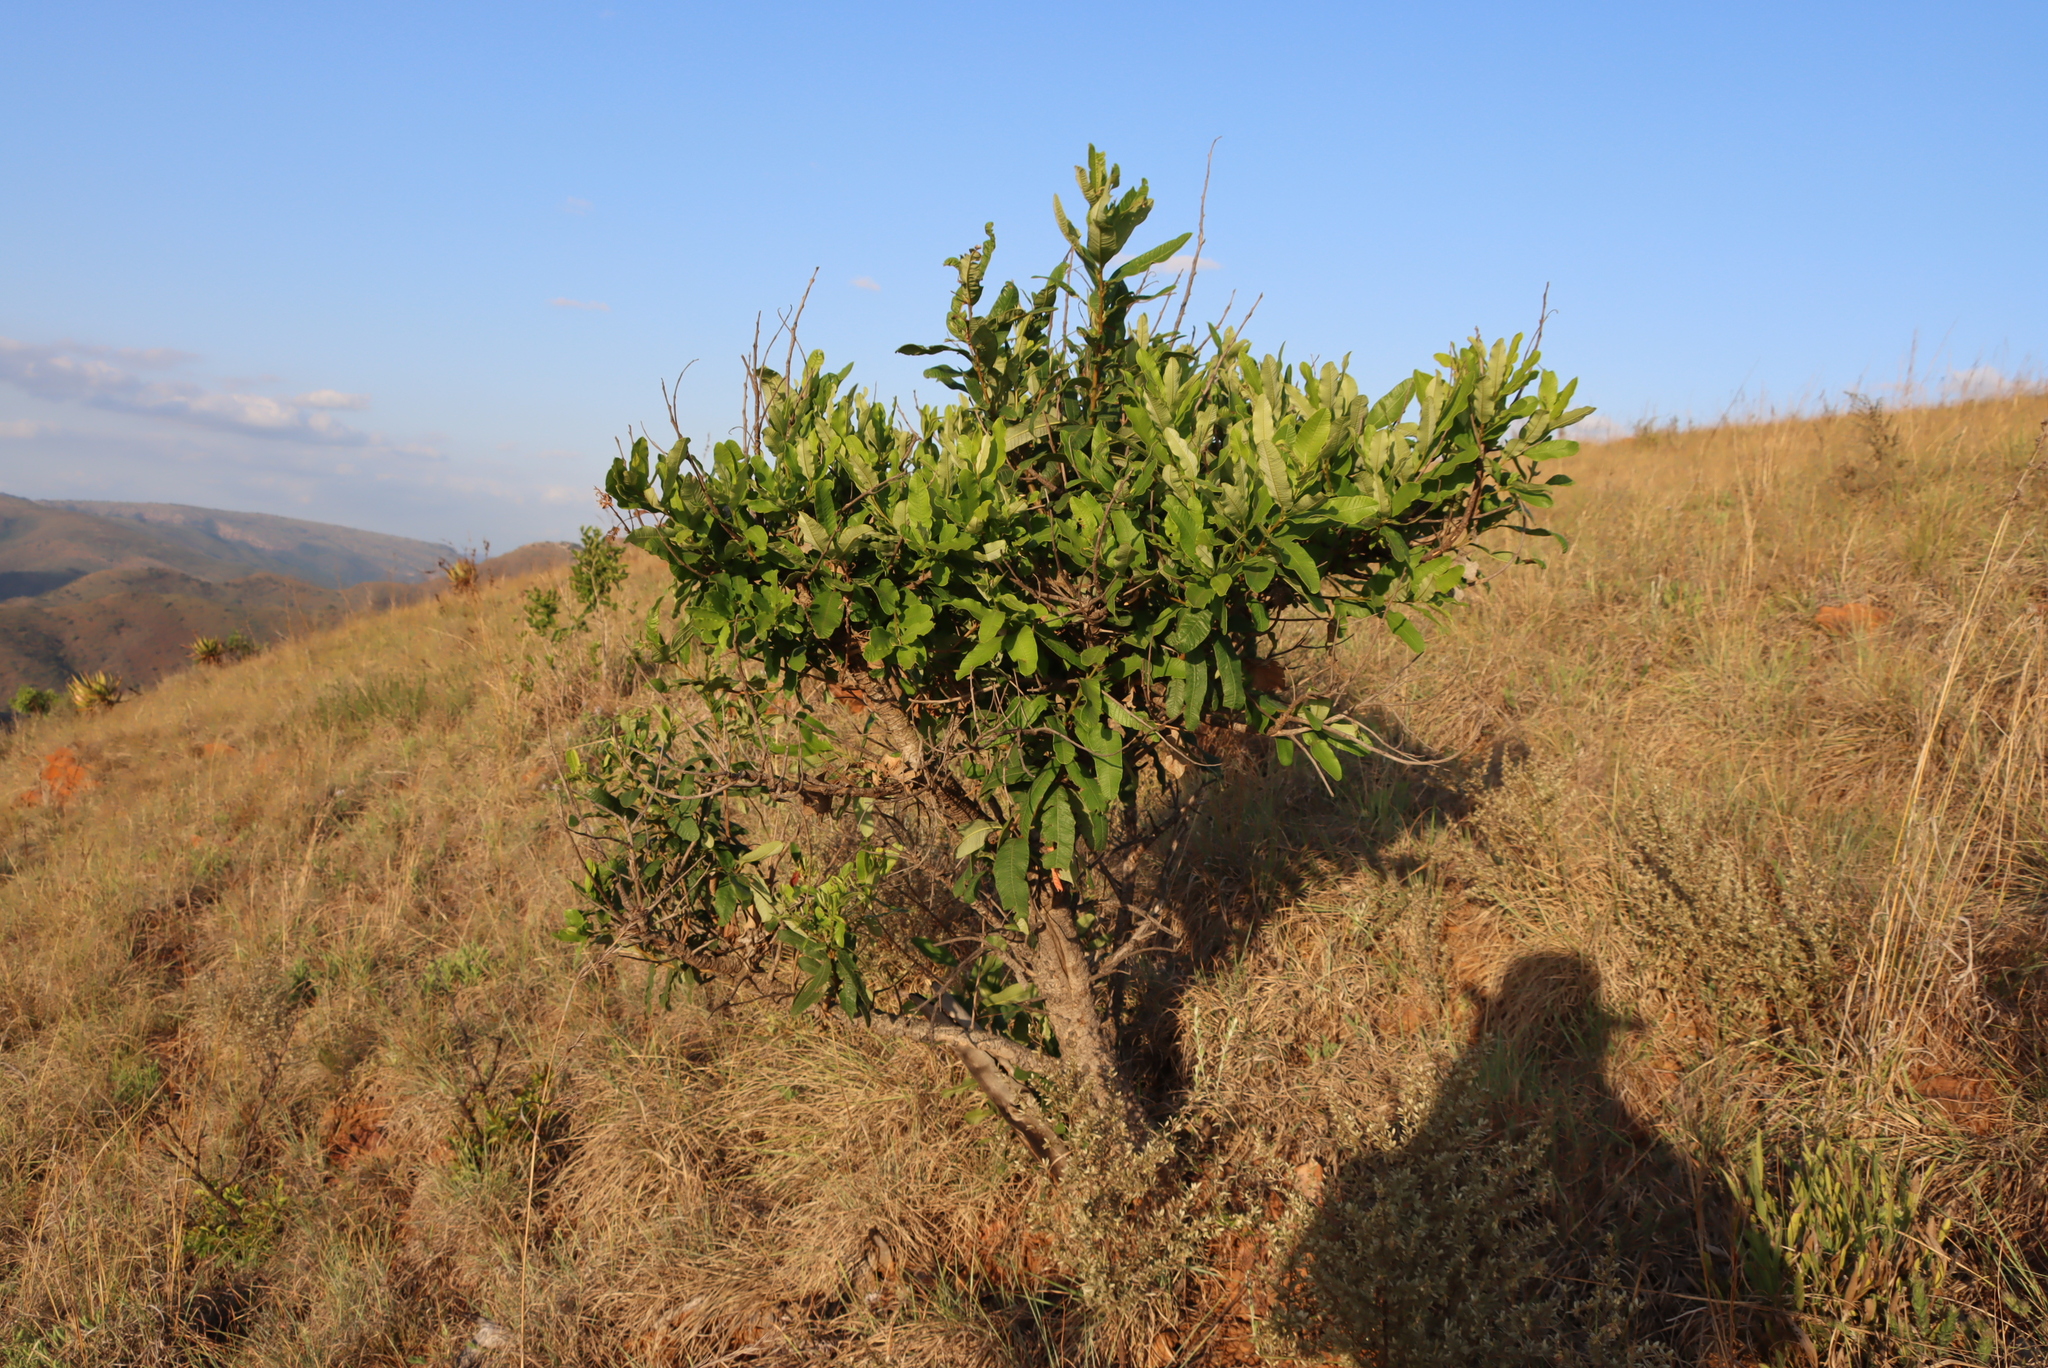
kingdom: Plantae
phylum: Tracheophyta
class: Magnoliopsida
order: Sapindales
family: Anacardiaceae
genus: Ozoroa
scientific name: Ozoroa paniculosa
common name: Bushveld ozoroa
